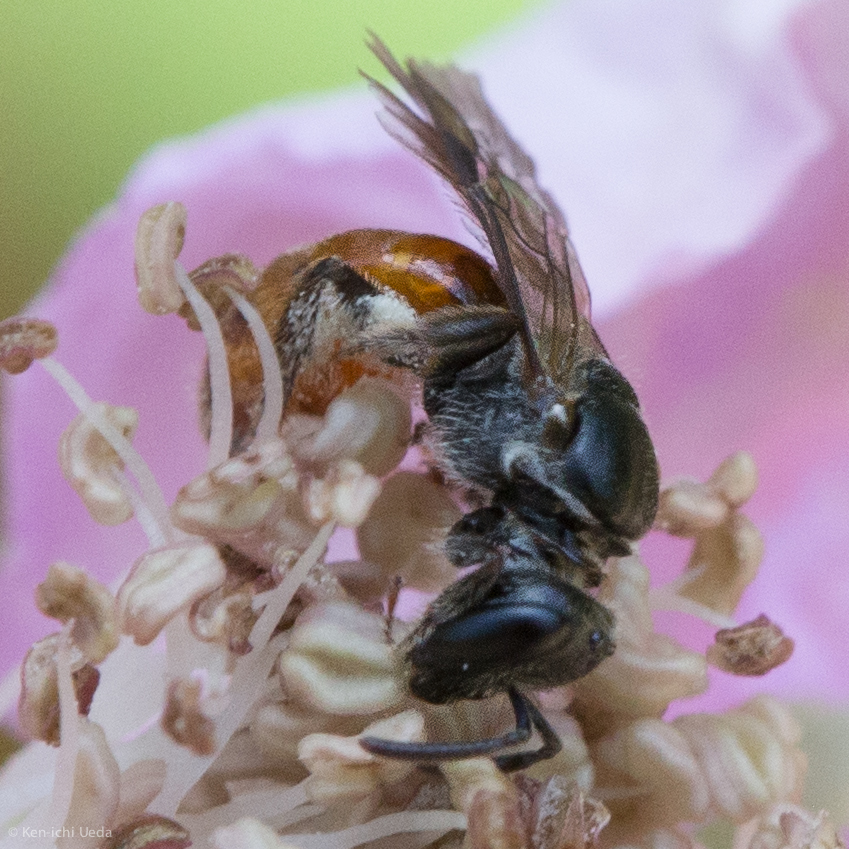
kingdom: Animalia
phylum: Arthropoda
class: Insecta
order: Hymenoptera
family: Halictidae
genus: Lasioglossum
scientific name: Lasioglossum ovaliceps
